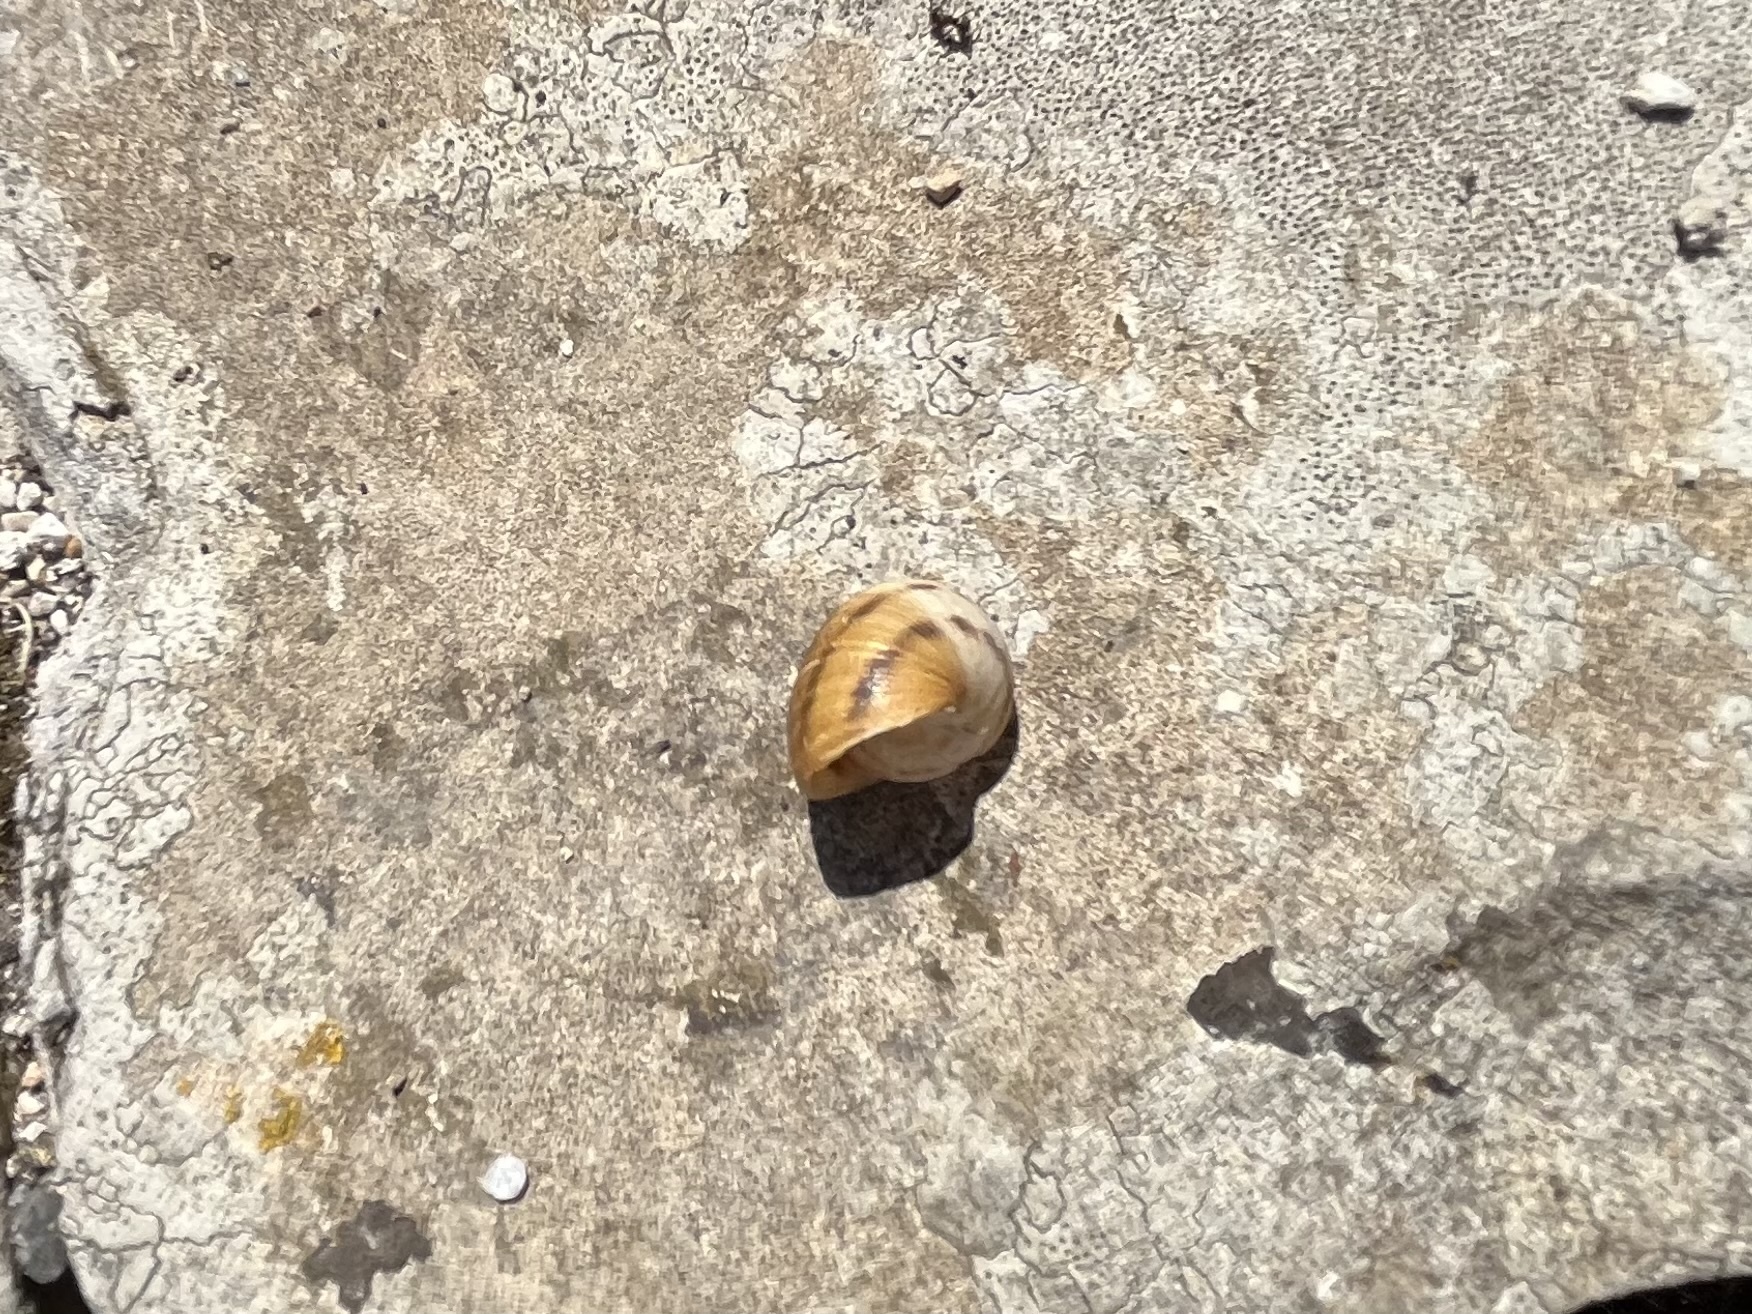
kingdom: Animalia
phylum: Mollusca
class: Gastropoda
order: Stylommatophora
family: Helicidae
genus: Cornu
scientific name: Cornu aspersum
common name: Brown garden snail
